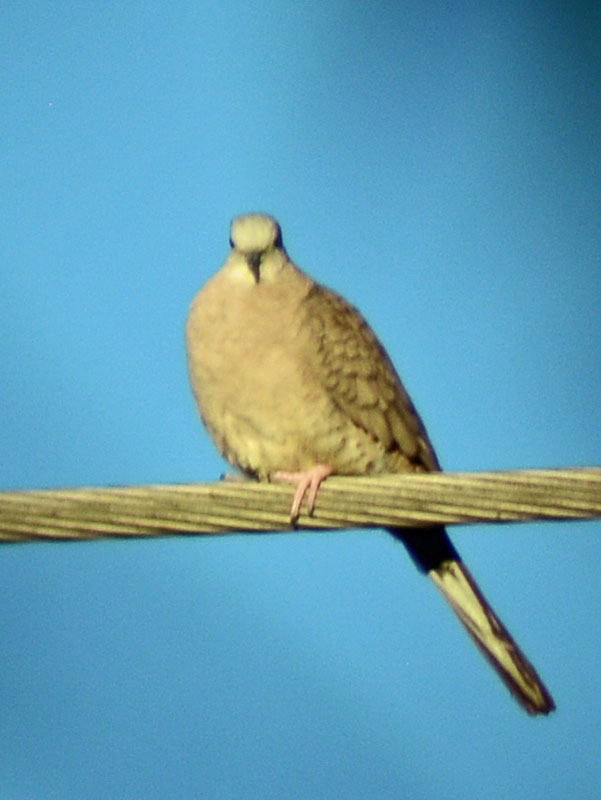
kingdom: Animalia
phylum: Chordata
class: Aves
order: Columbiformes
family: Columbidae
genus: Columbina
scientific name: Columbina inca
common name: Inca dove
